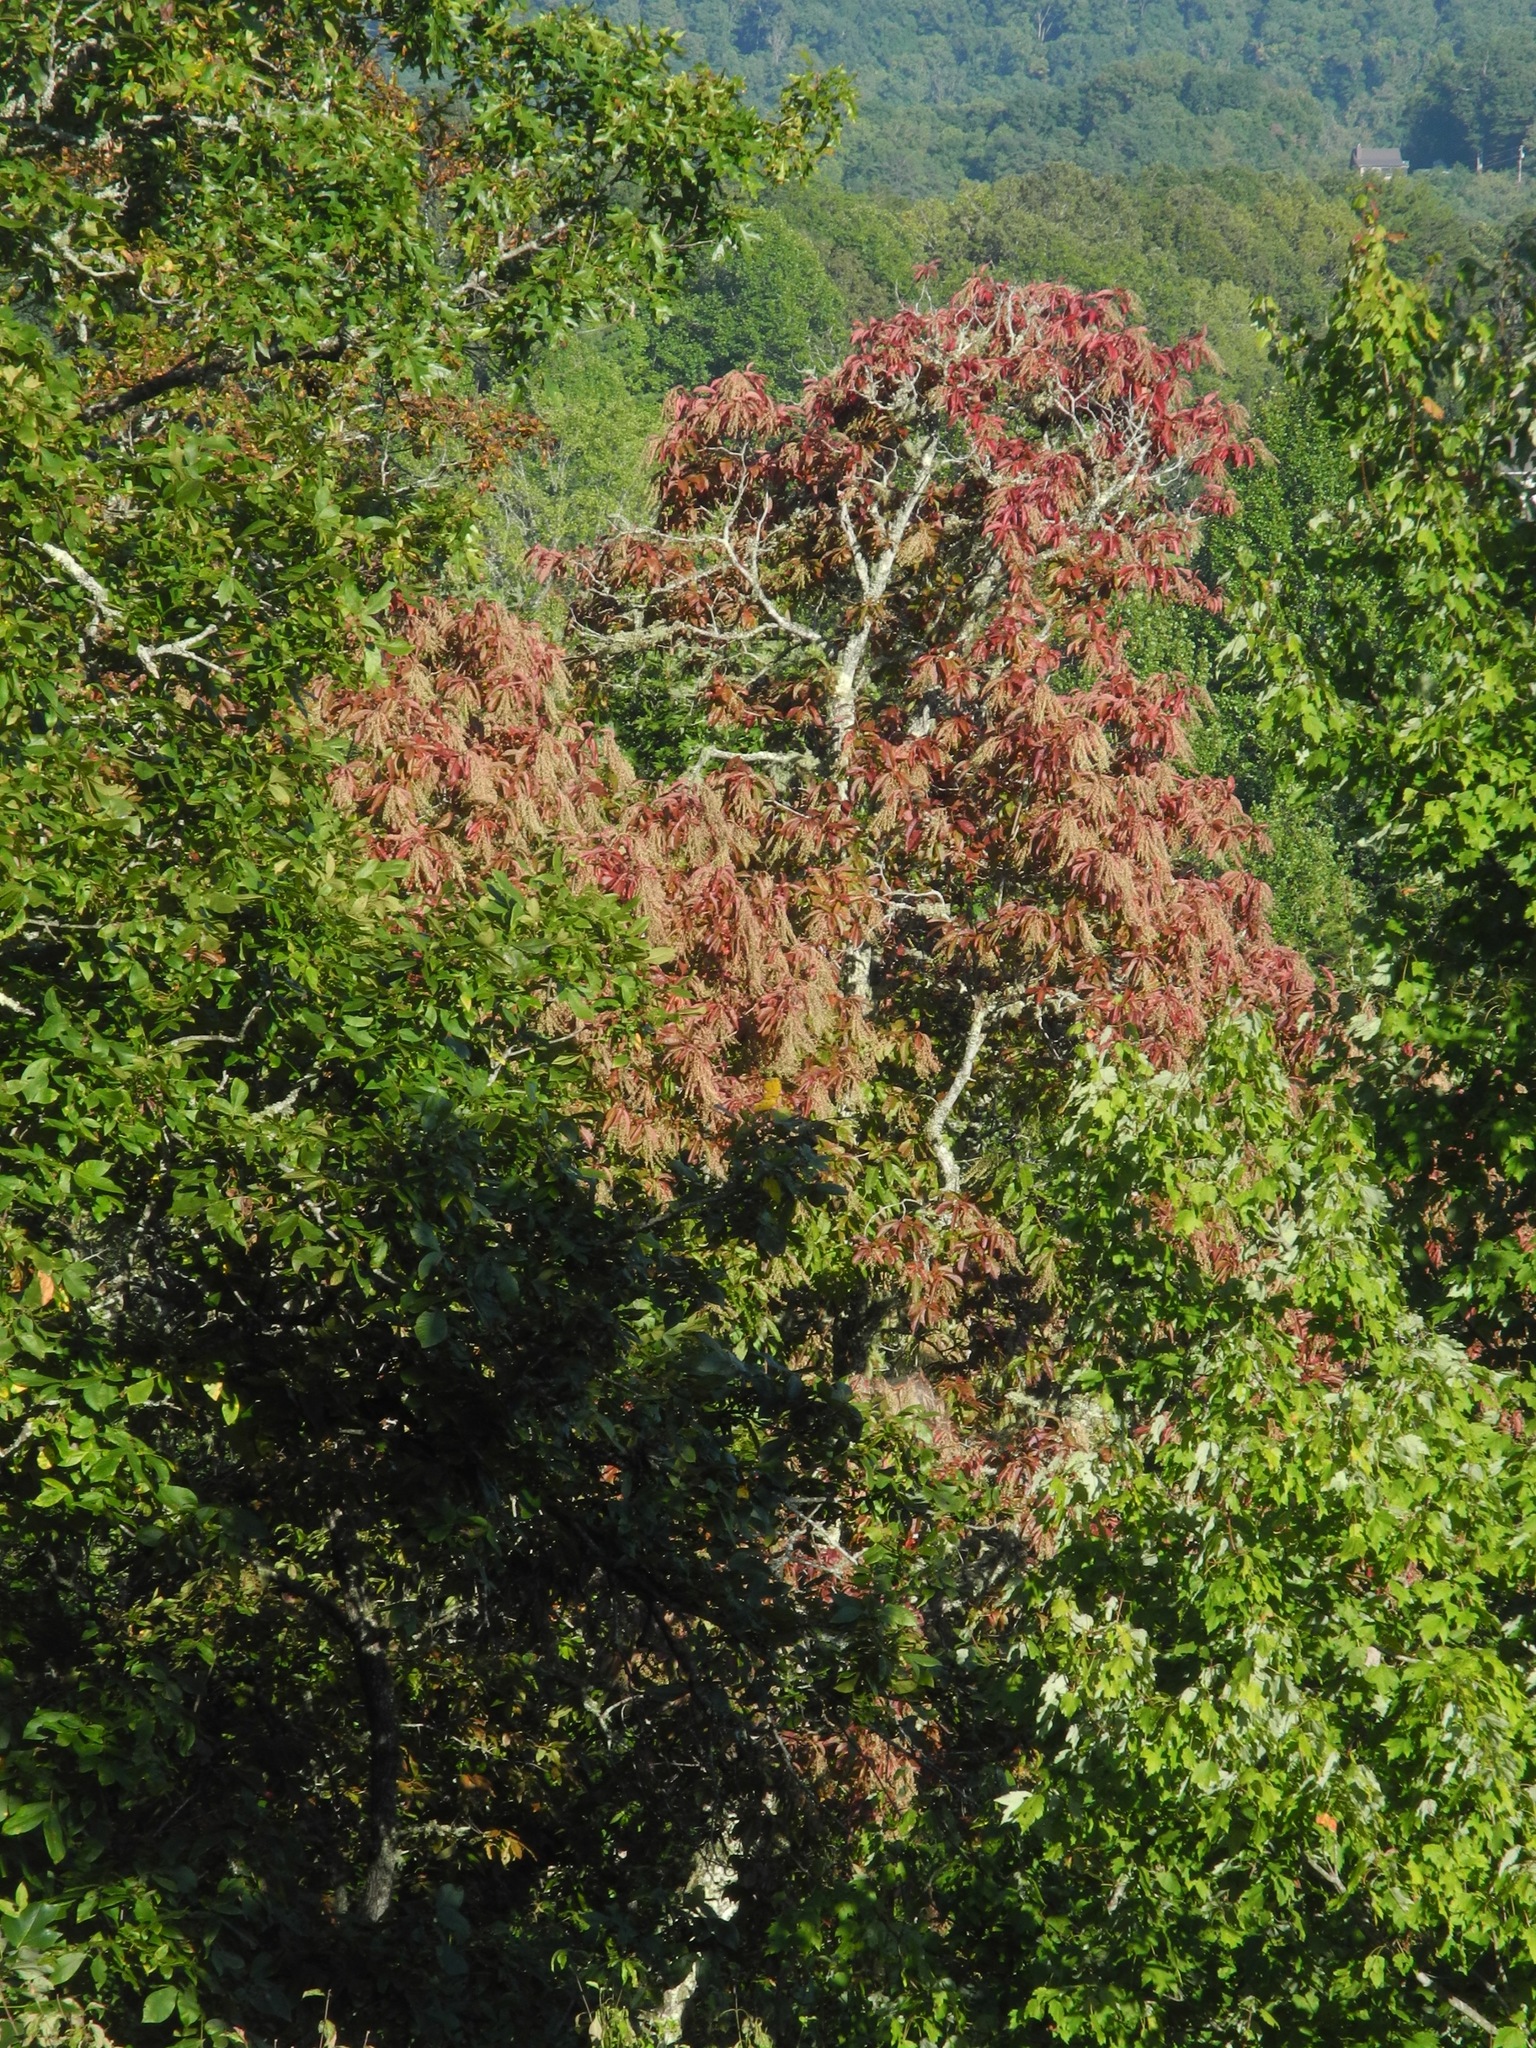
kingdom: Plantae
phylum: Tracheophyta
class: Magnoliopsida
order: Ericales
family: Ericaceae
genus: Oxydendrum
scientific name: Oxydendrum arboreum
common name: Sourwood
